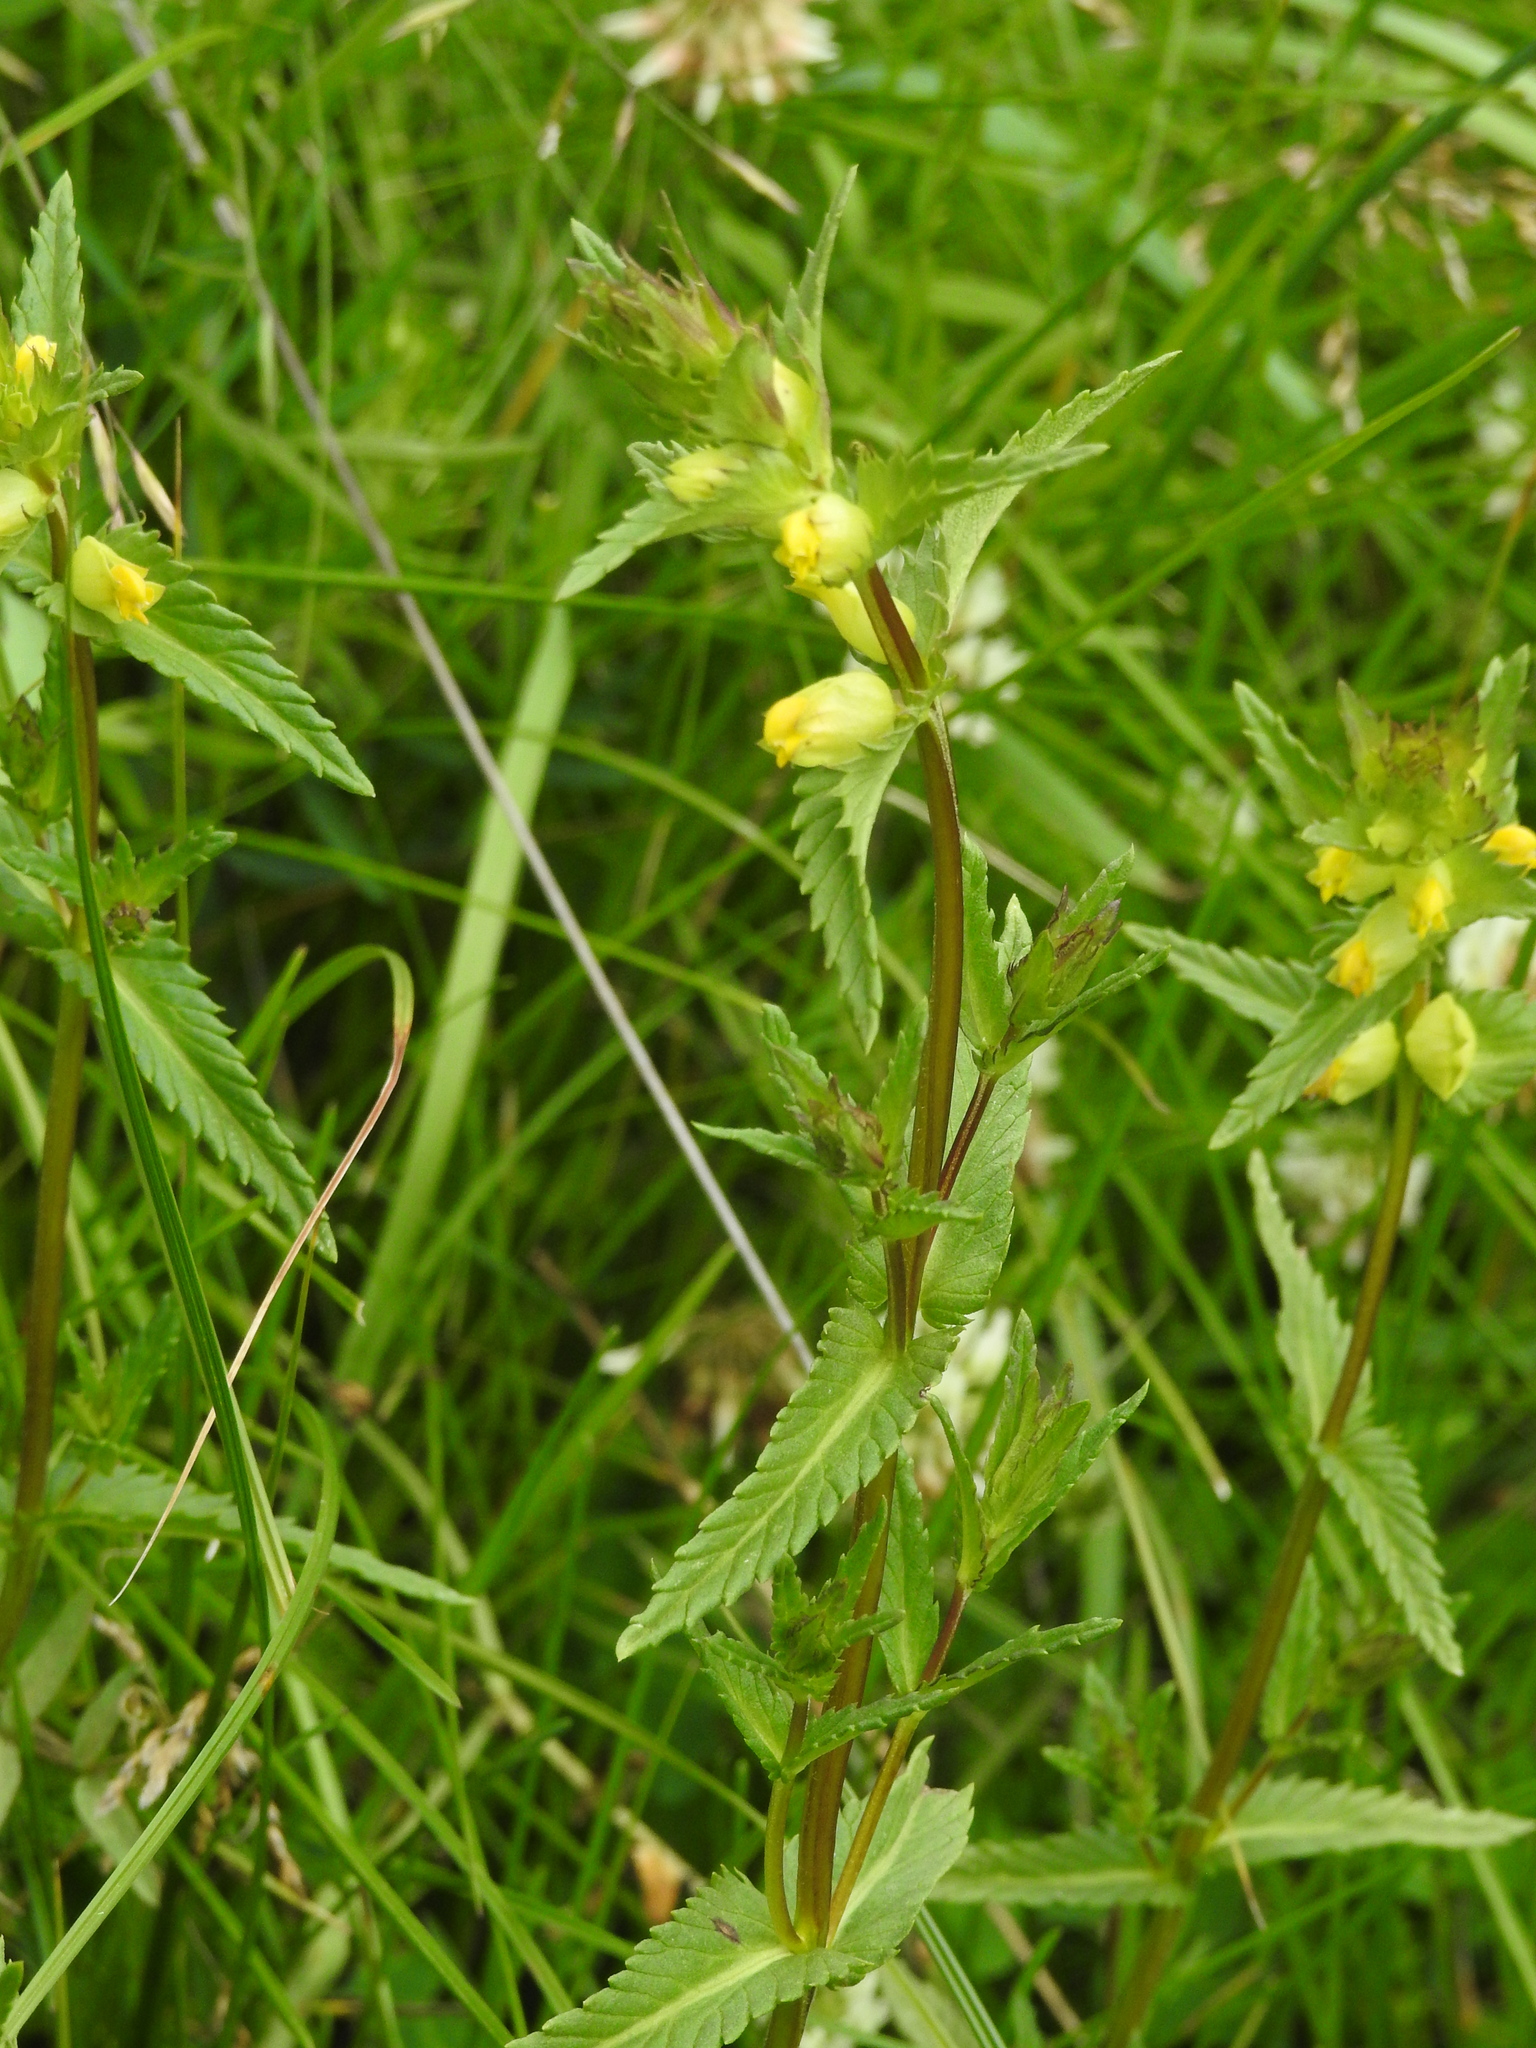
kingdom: Plantae
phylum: Tracheophyta
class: Magnoliopsida
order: Lamiales
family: Orobanchaceae
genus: Rhinanthus
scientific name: Rhinanthus minor
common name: Yellow-rattle
